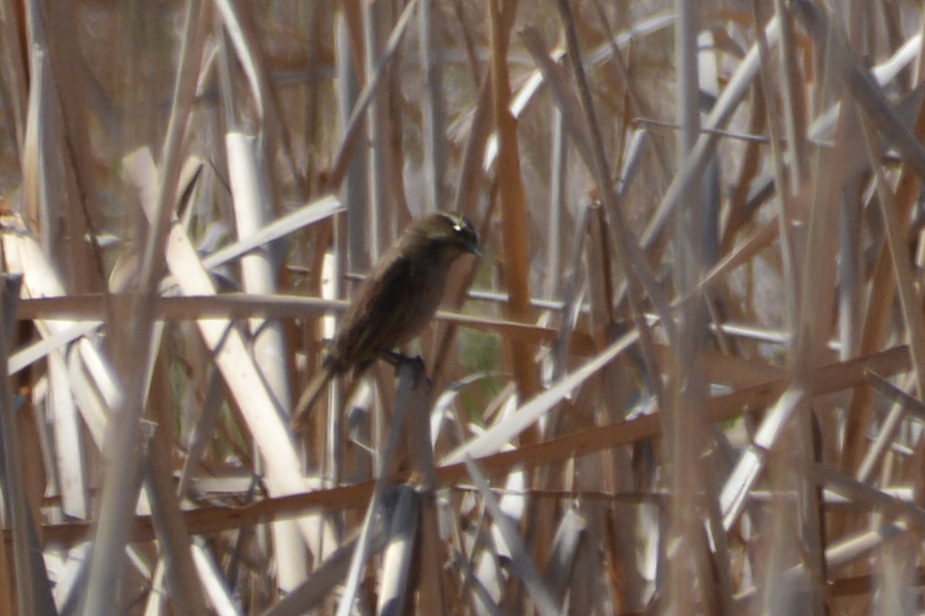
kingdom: Animalia
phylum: Chordata
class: Aves
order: Passeriformes
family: Icteridae
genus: Agelasticus
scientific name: Agelasticus thilius
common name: Yellow-winged blackbird
